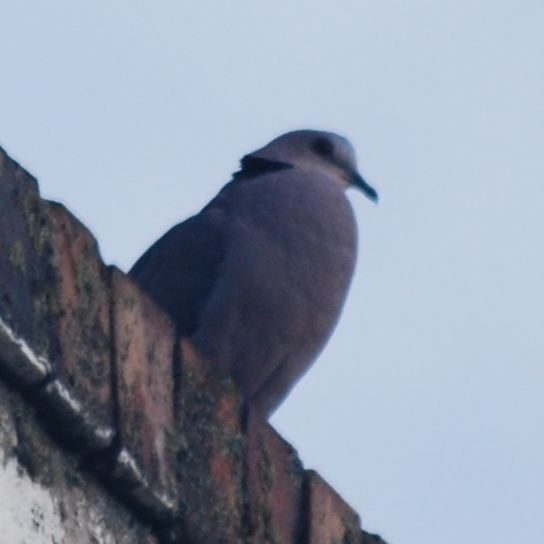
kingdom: Animalia
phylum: Chordata
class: Aves
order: Columbiformes
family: Columbidae
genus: Streptopelia
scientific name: Streptopelia semitorquata
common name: Red-eyed dove
